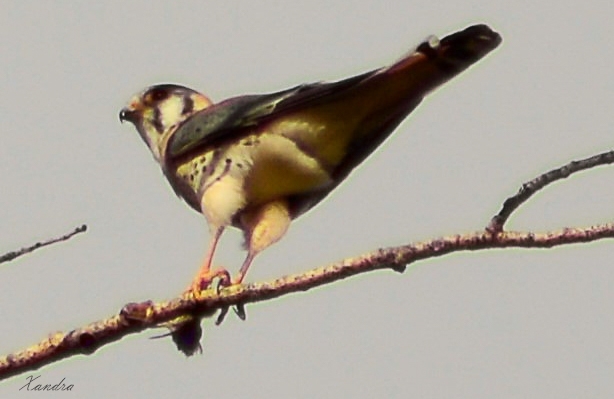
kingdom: Animalia
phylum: Chordata
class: Aves
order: Falconiformes
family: Falconidae
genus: Falco
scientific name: Falco sparverius
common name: American kestrel
